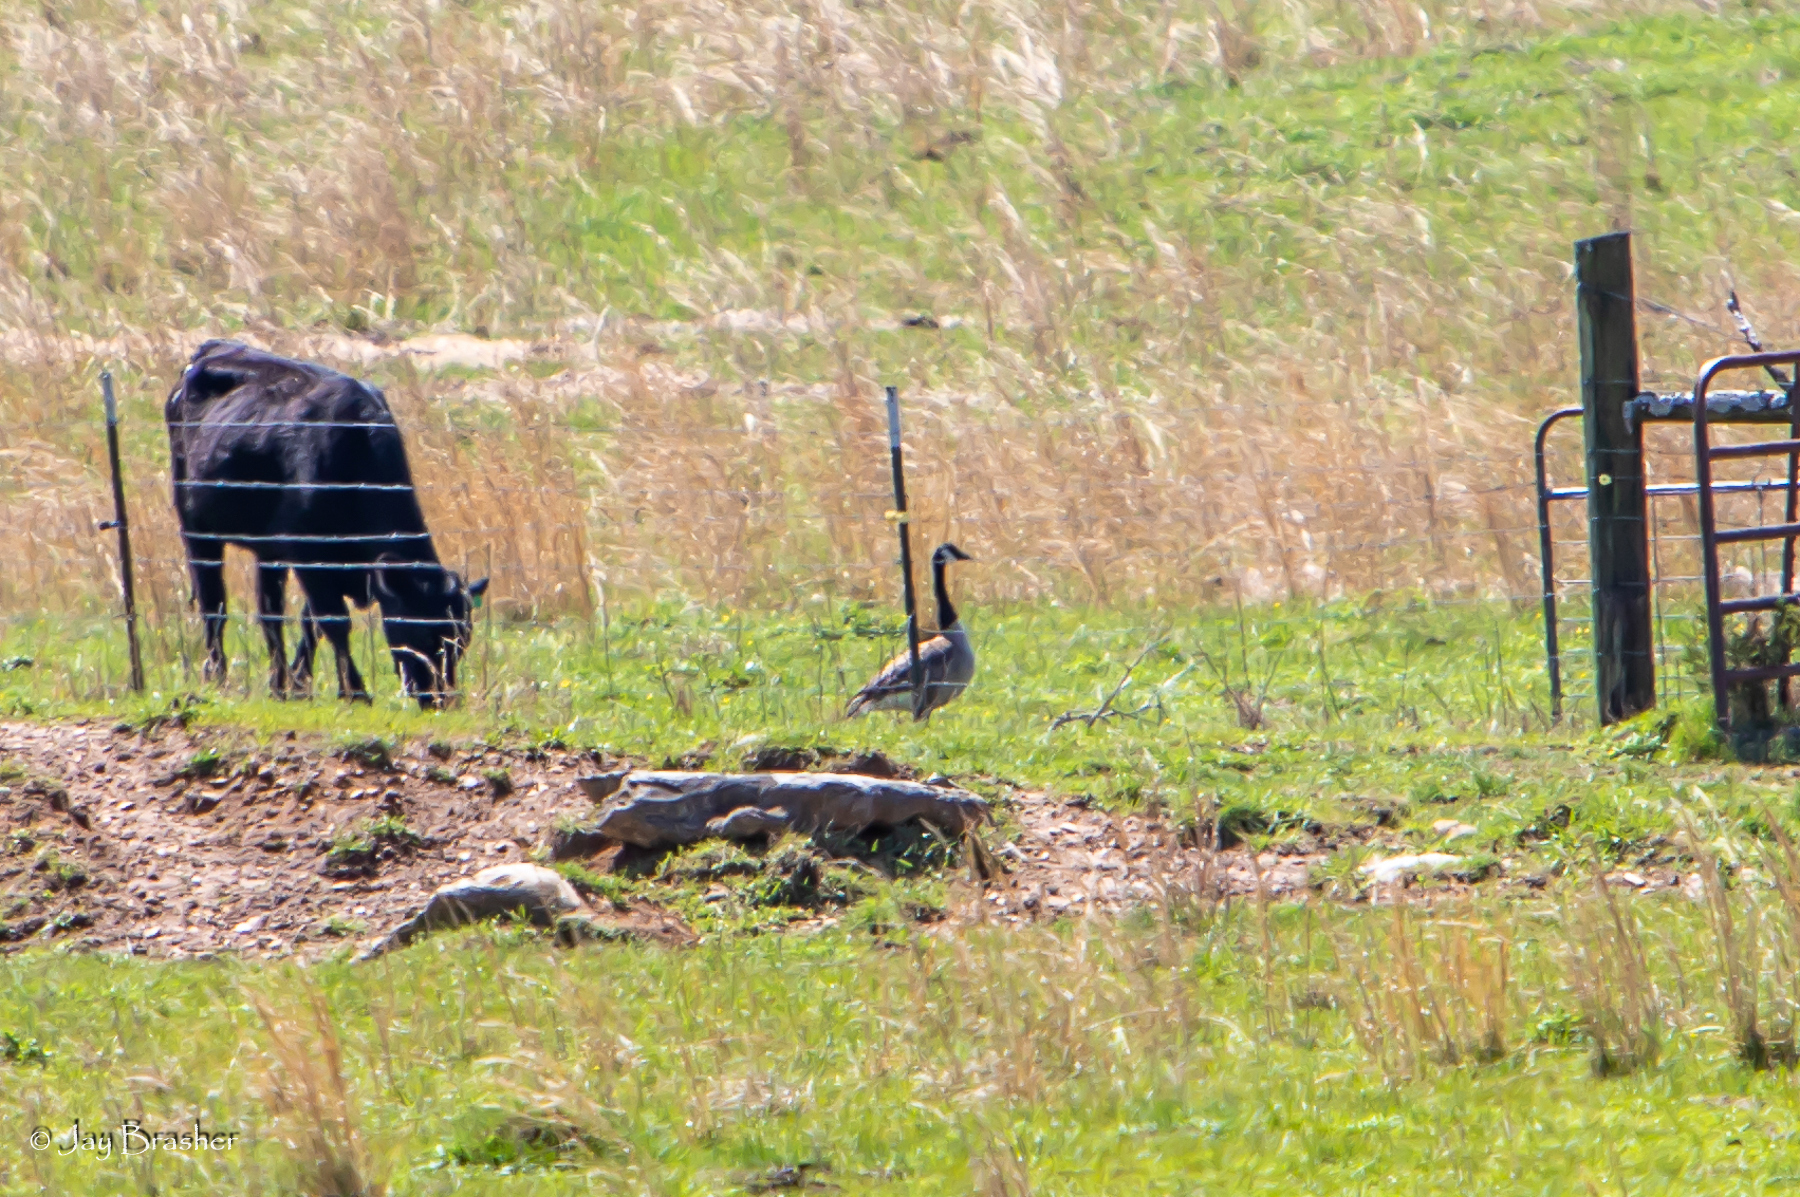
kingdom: Animalia
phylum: Chordata
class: Aves
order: Anseriformes
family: Anatidae
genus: Branta
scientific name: Branta canadensis
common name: Canada goose
